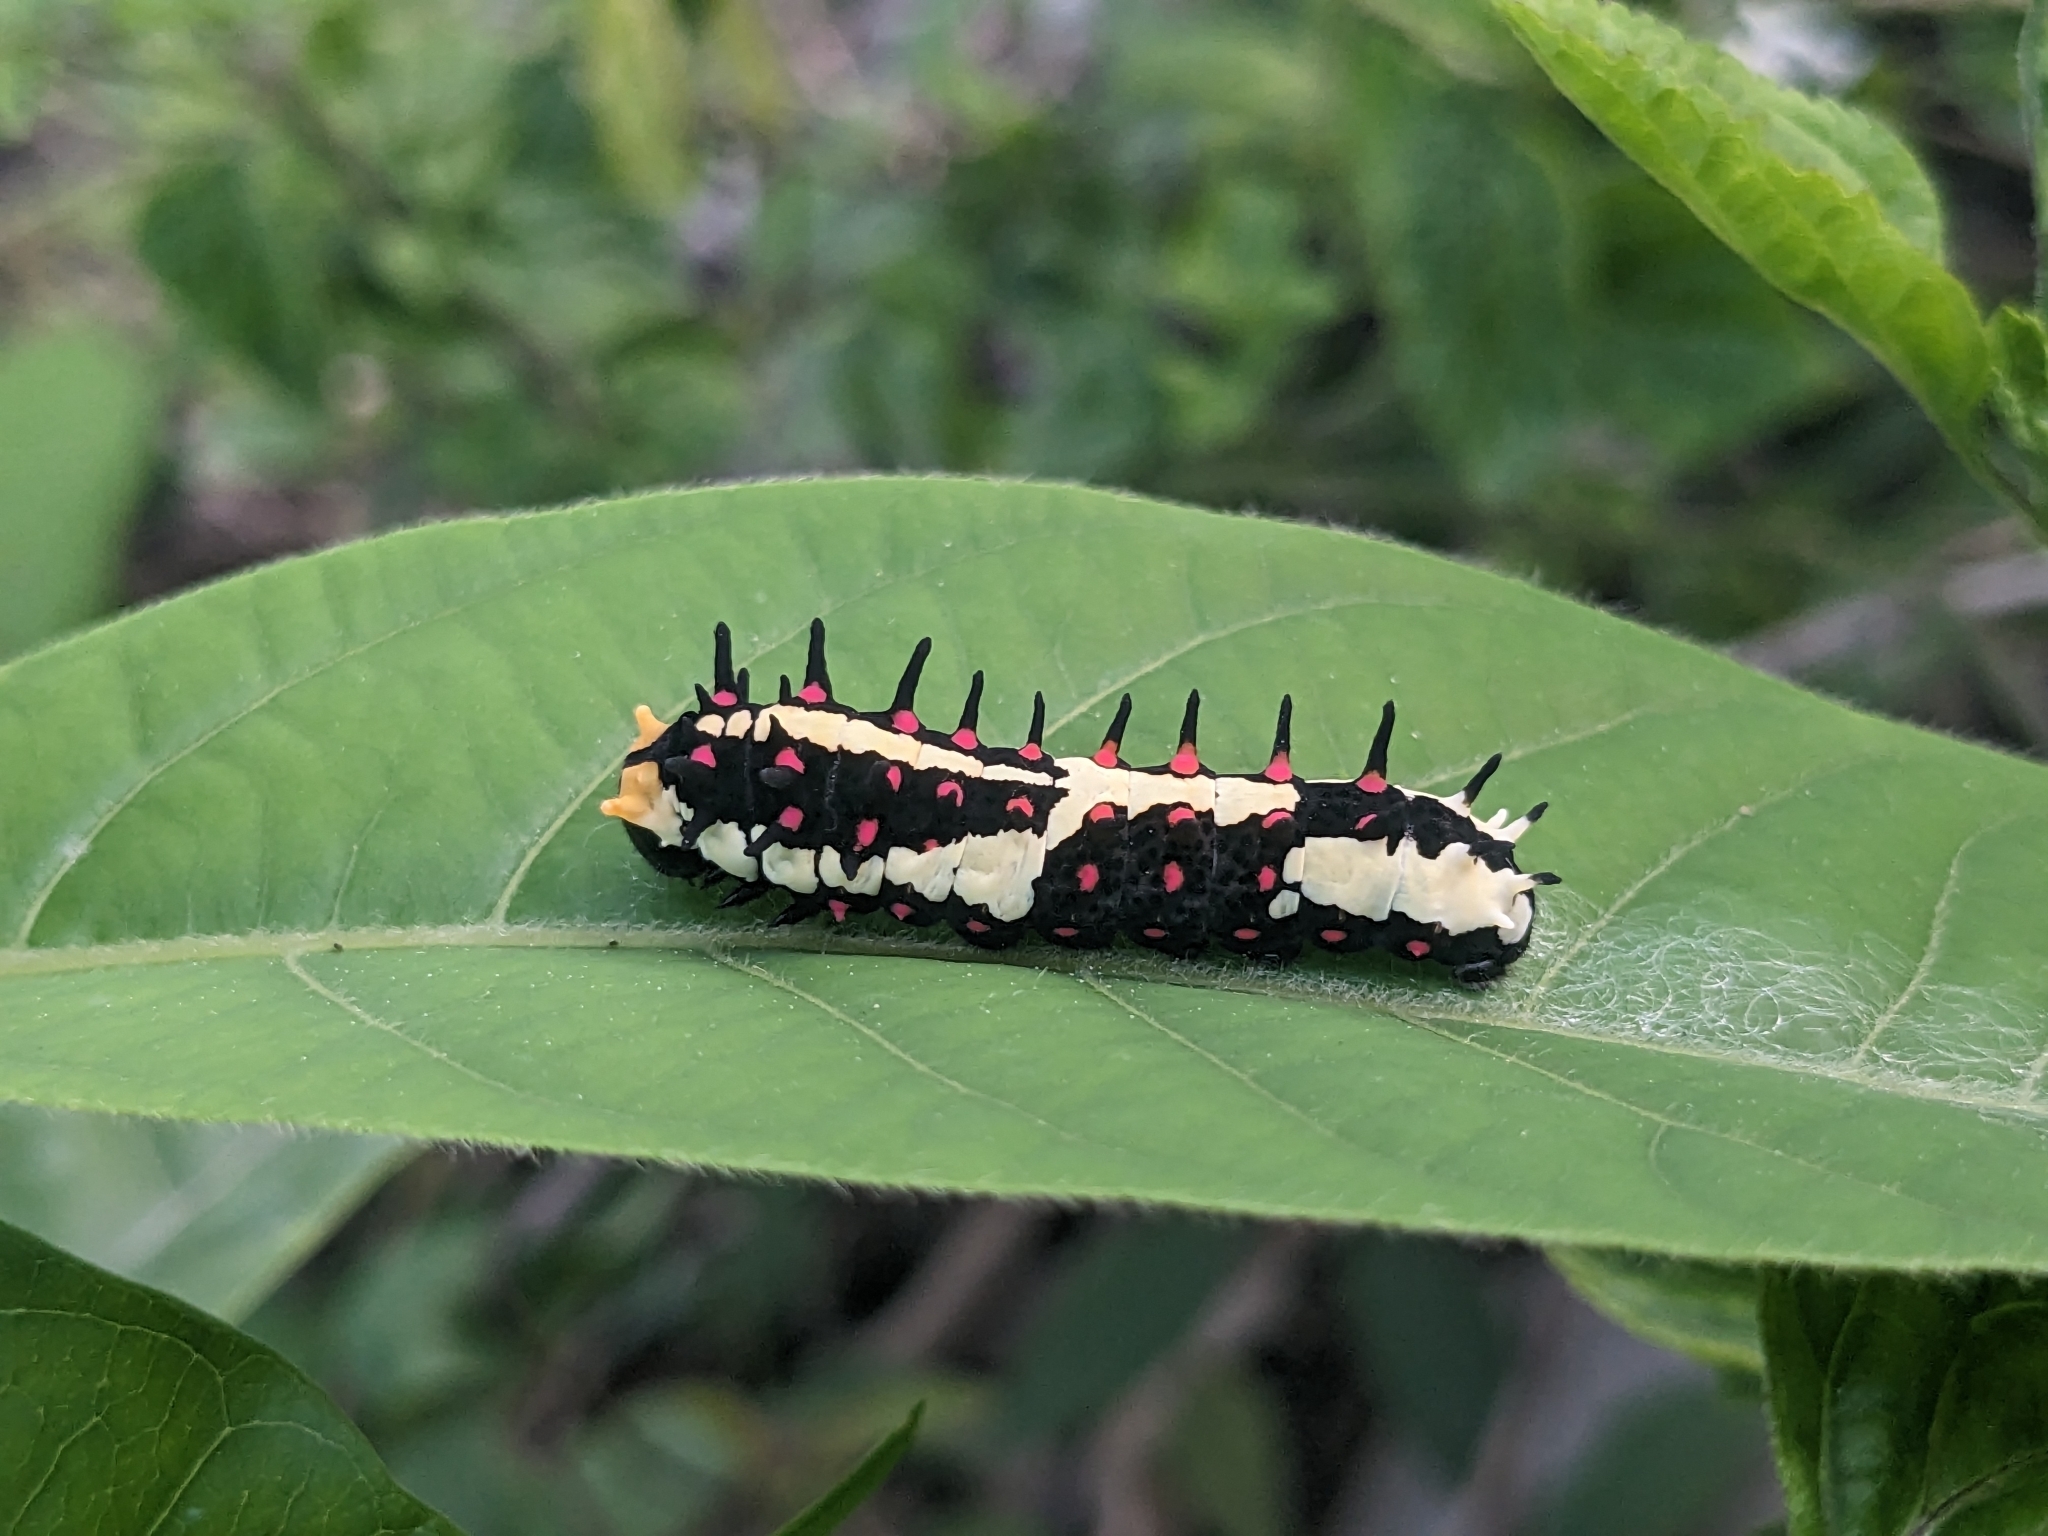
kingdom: Animalia
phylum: Arthropoda
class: Insecta
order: Lepidoptera
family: Papilionidae
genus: Chilasa
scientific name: Chilasa clytia
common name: Common mime
